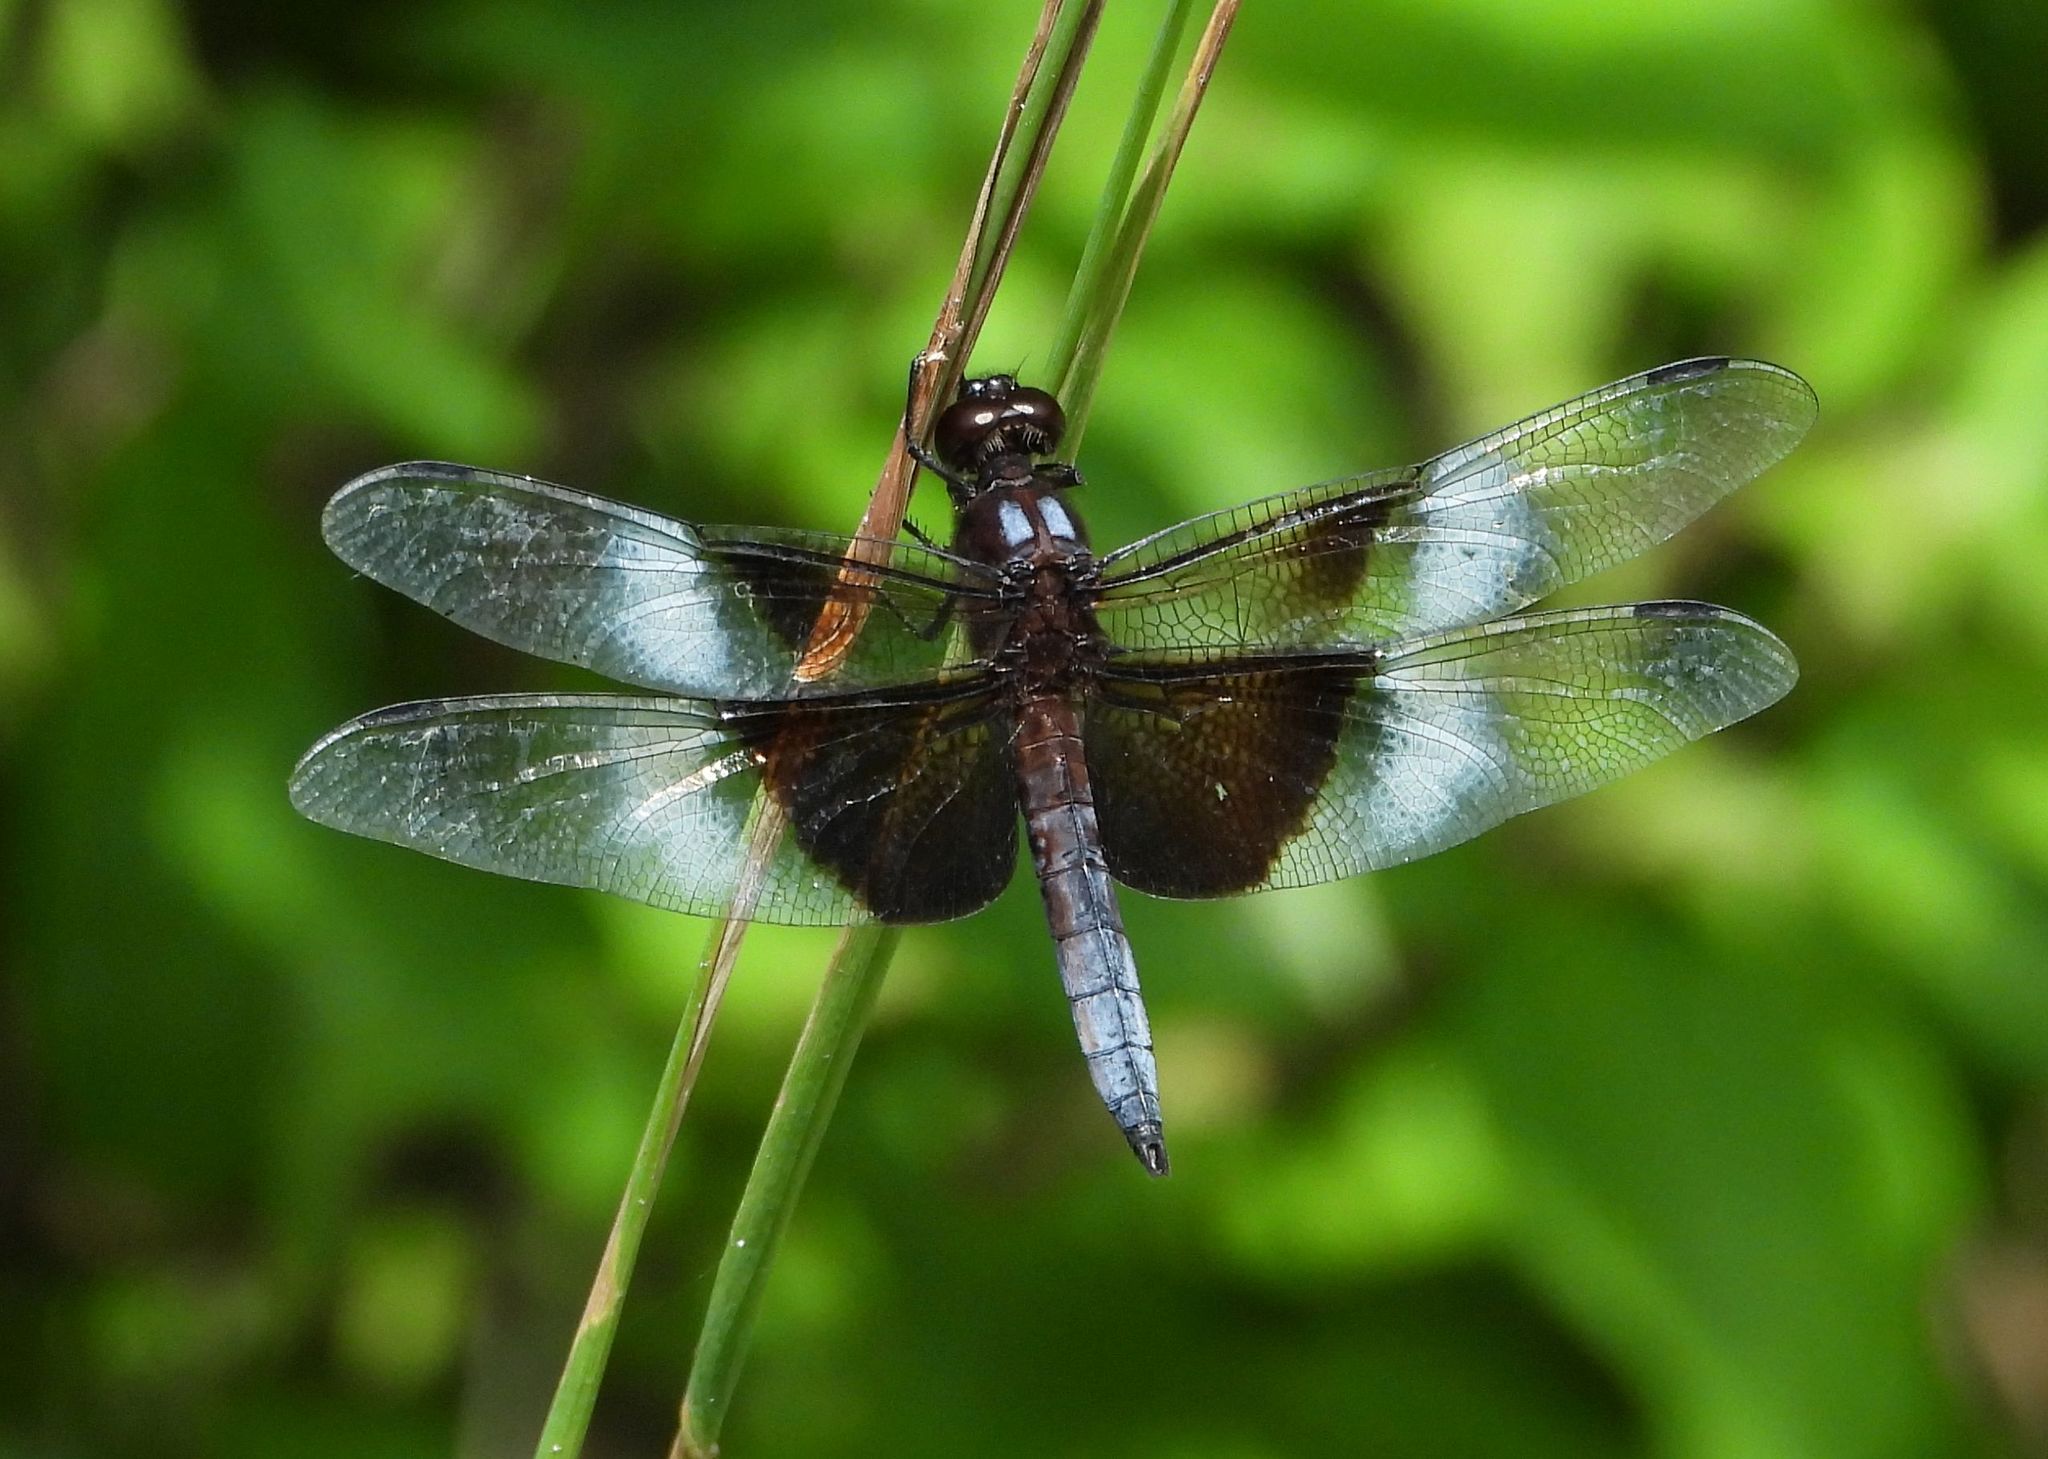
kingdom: Animalia
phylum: Arthropoda
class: Insecta
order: Odonata
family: Libellulidae
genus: Libellula
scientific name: Libellula luctuosa
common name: Widow skimmer
